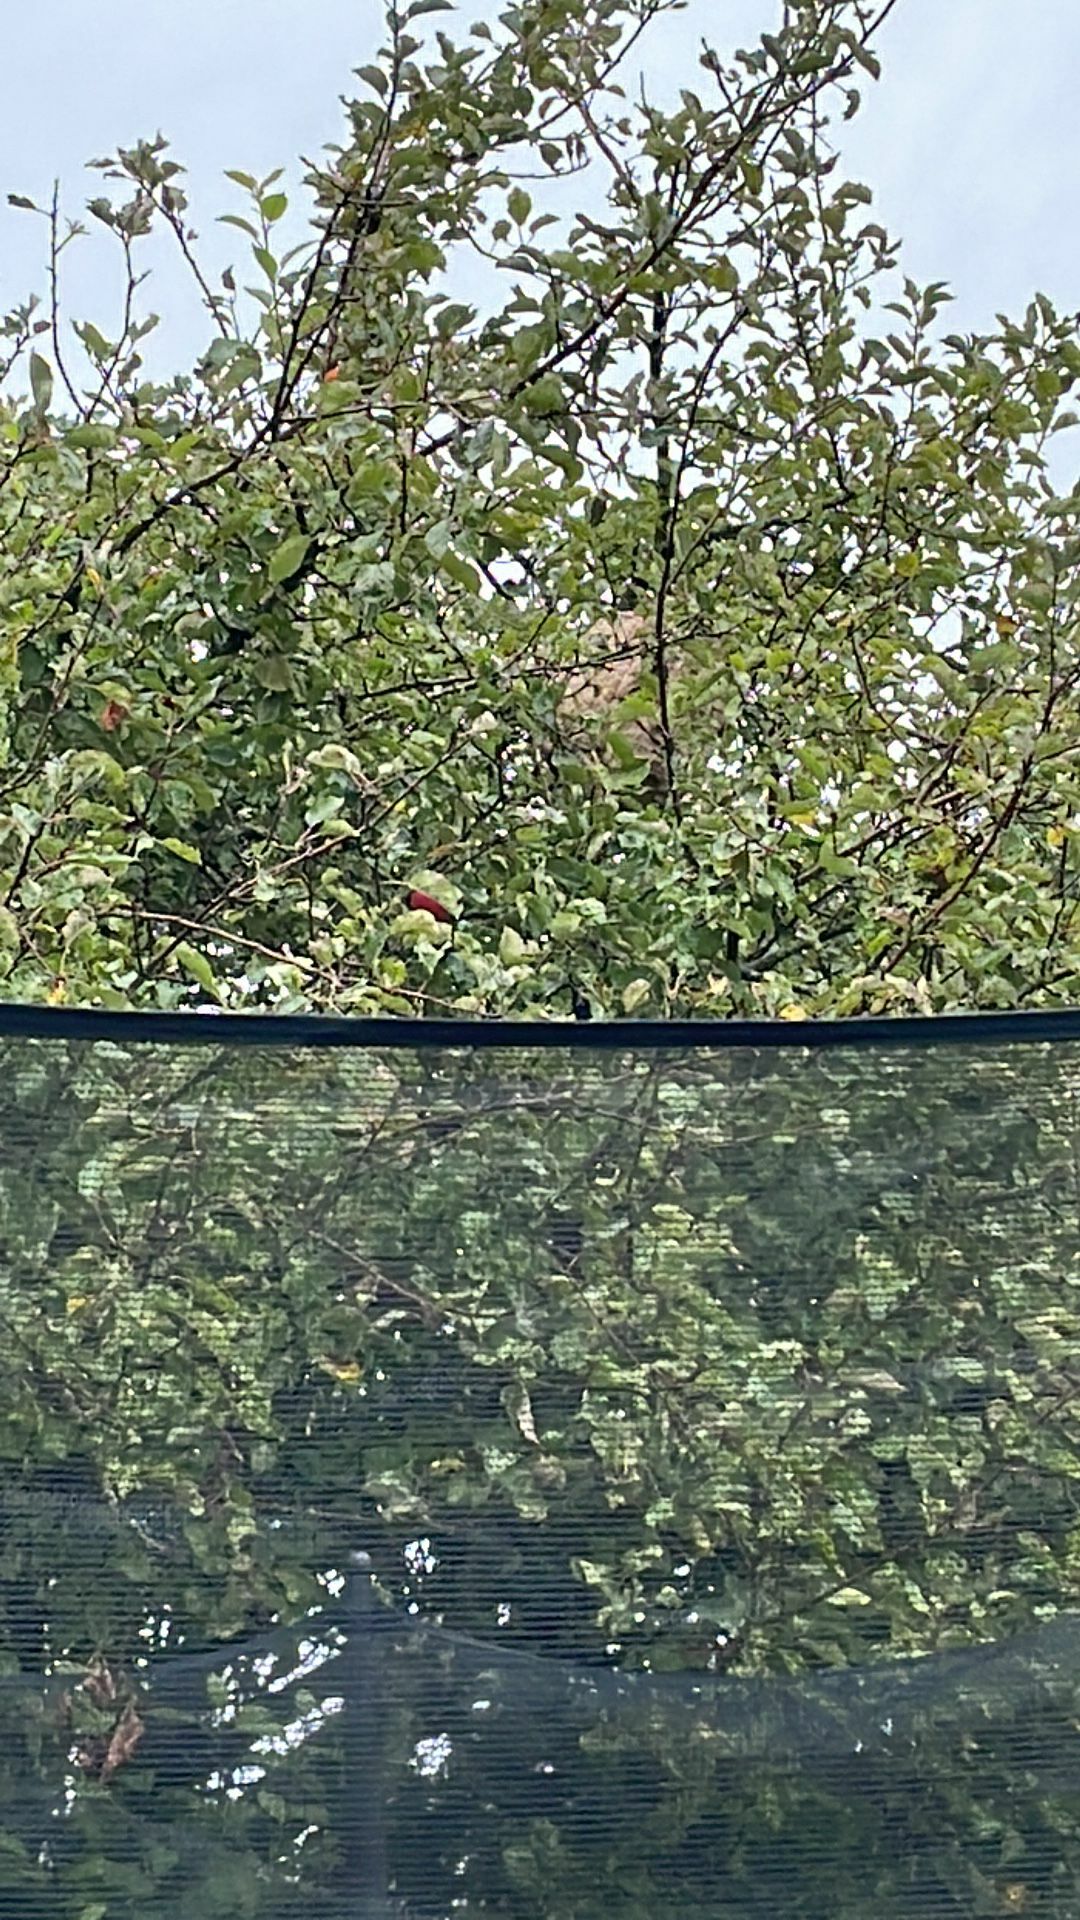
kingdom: Animalia
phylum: Arthropoda
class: Insecta
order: Hymenoptera
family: Vespidae
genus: Vespa
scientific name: Vespa velutina
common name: Asian hornet
